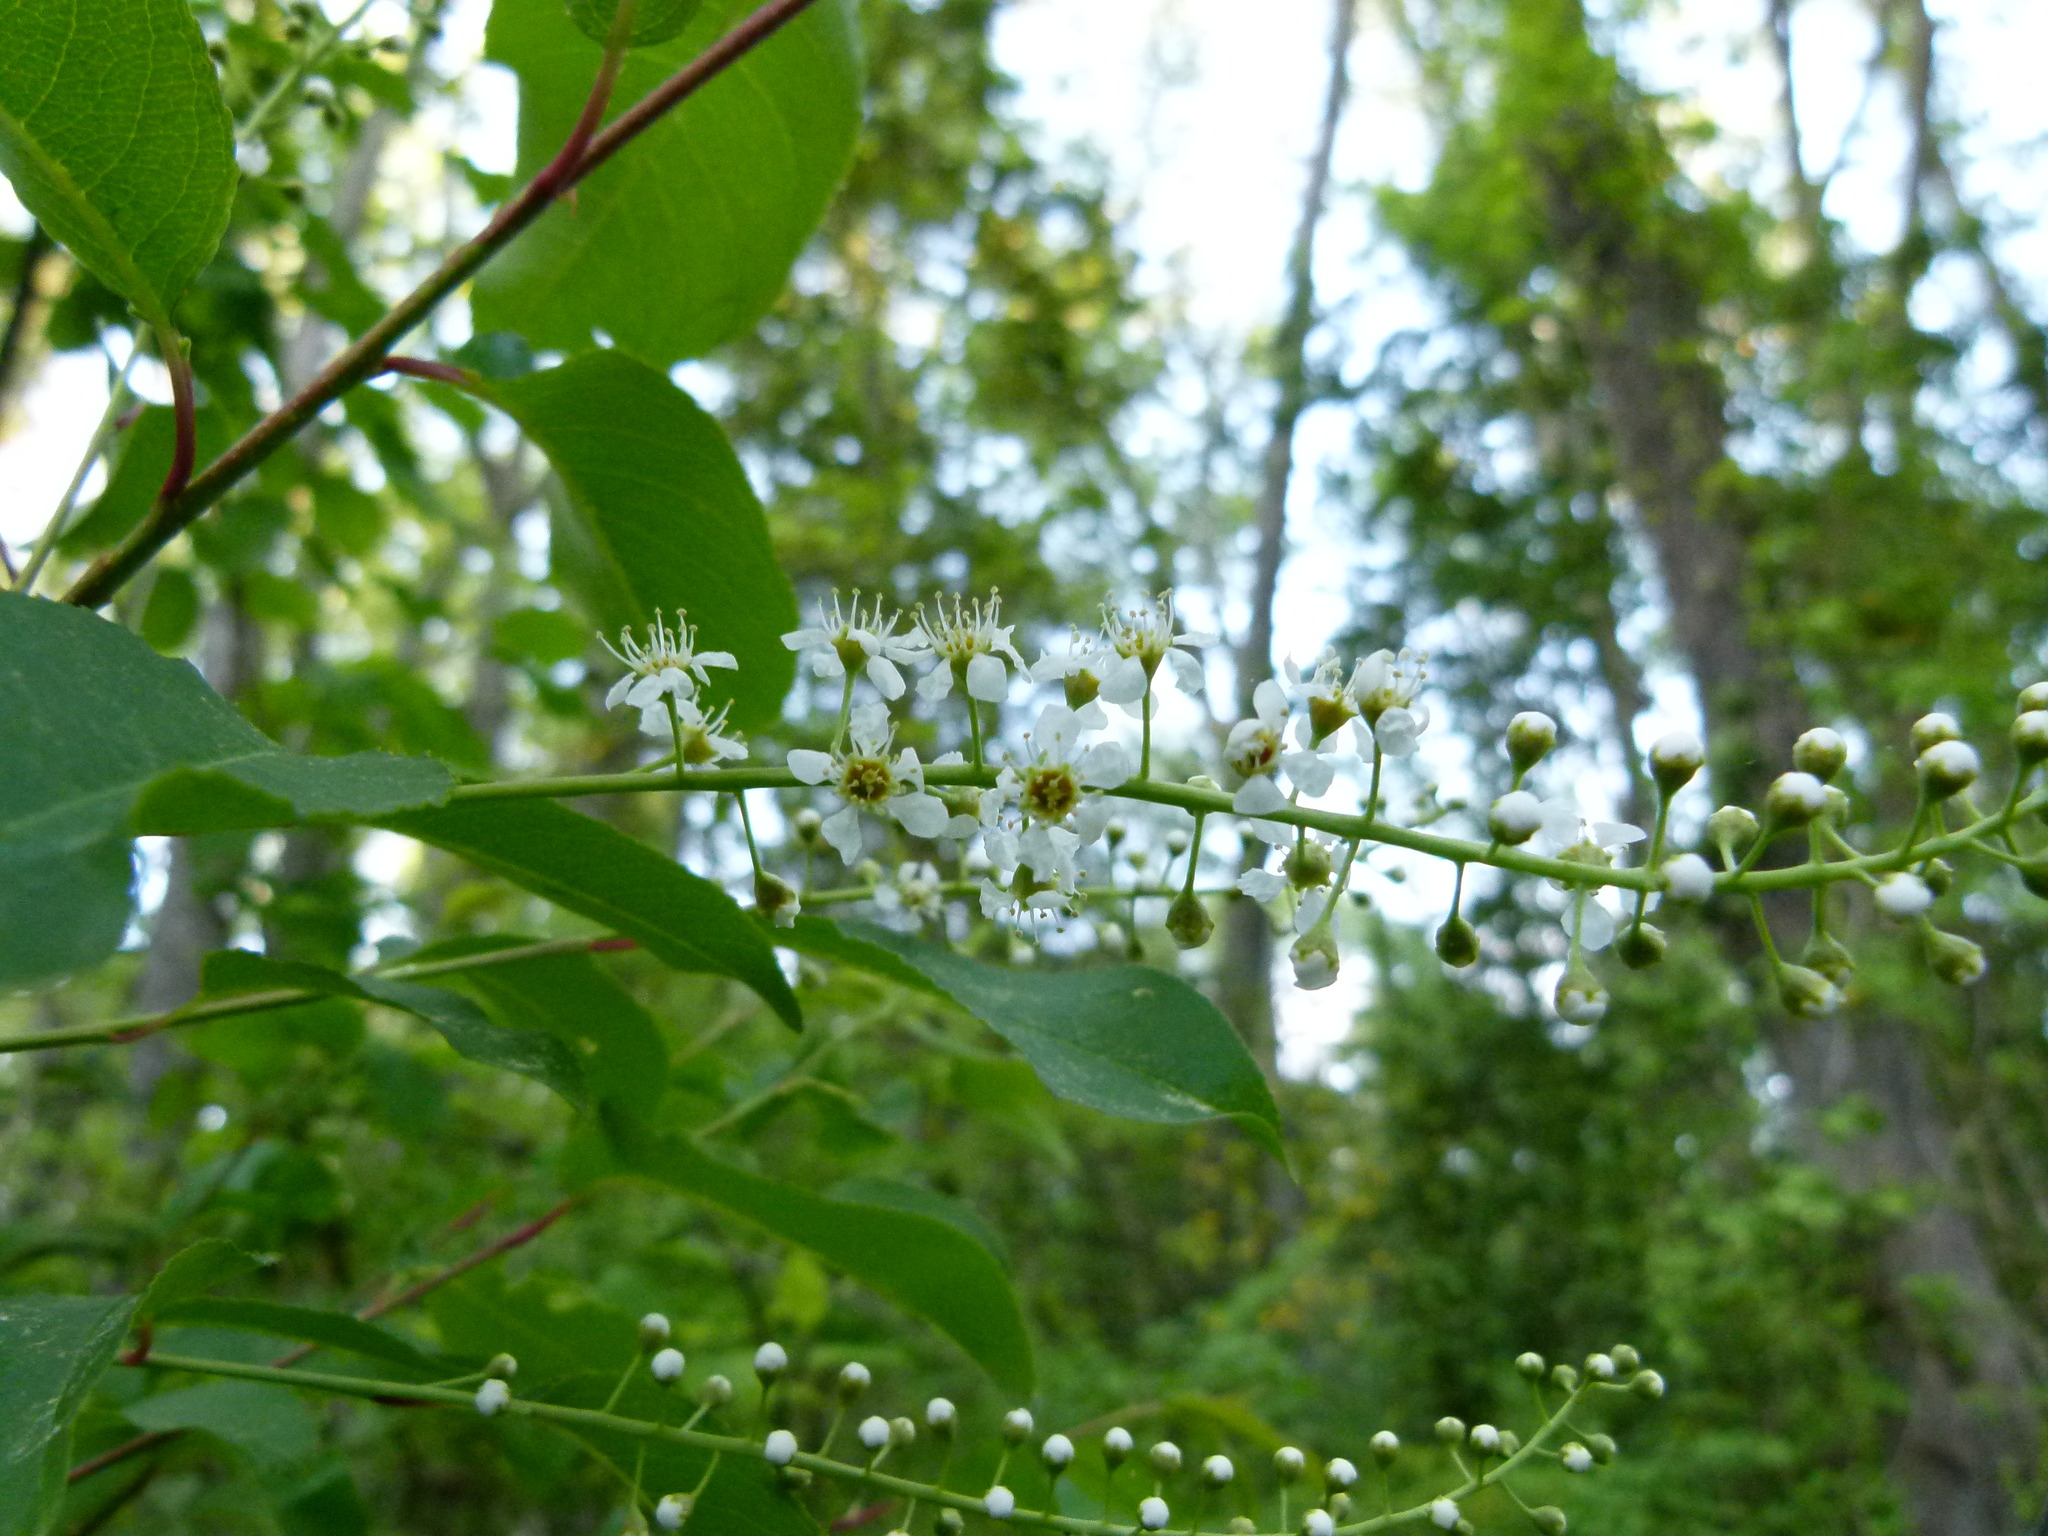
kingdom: Plantae
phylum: Tracheophyta
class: Magnoliopsida
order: Rosales
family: Rosaceae
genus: Prunus
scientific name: Prunus serotina
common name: Black cherry
